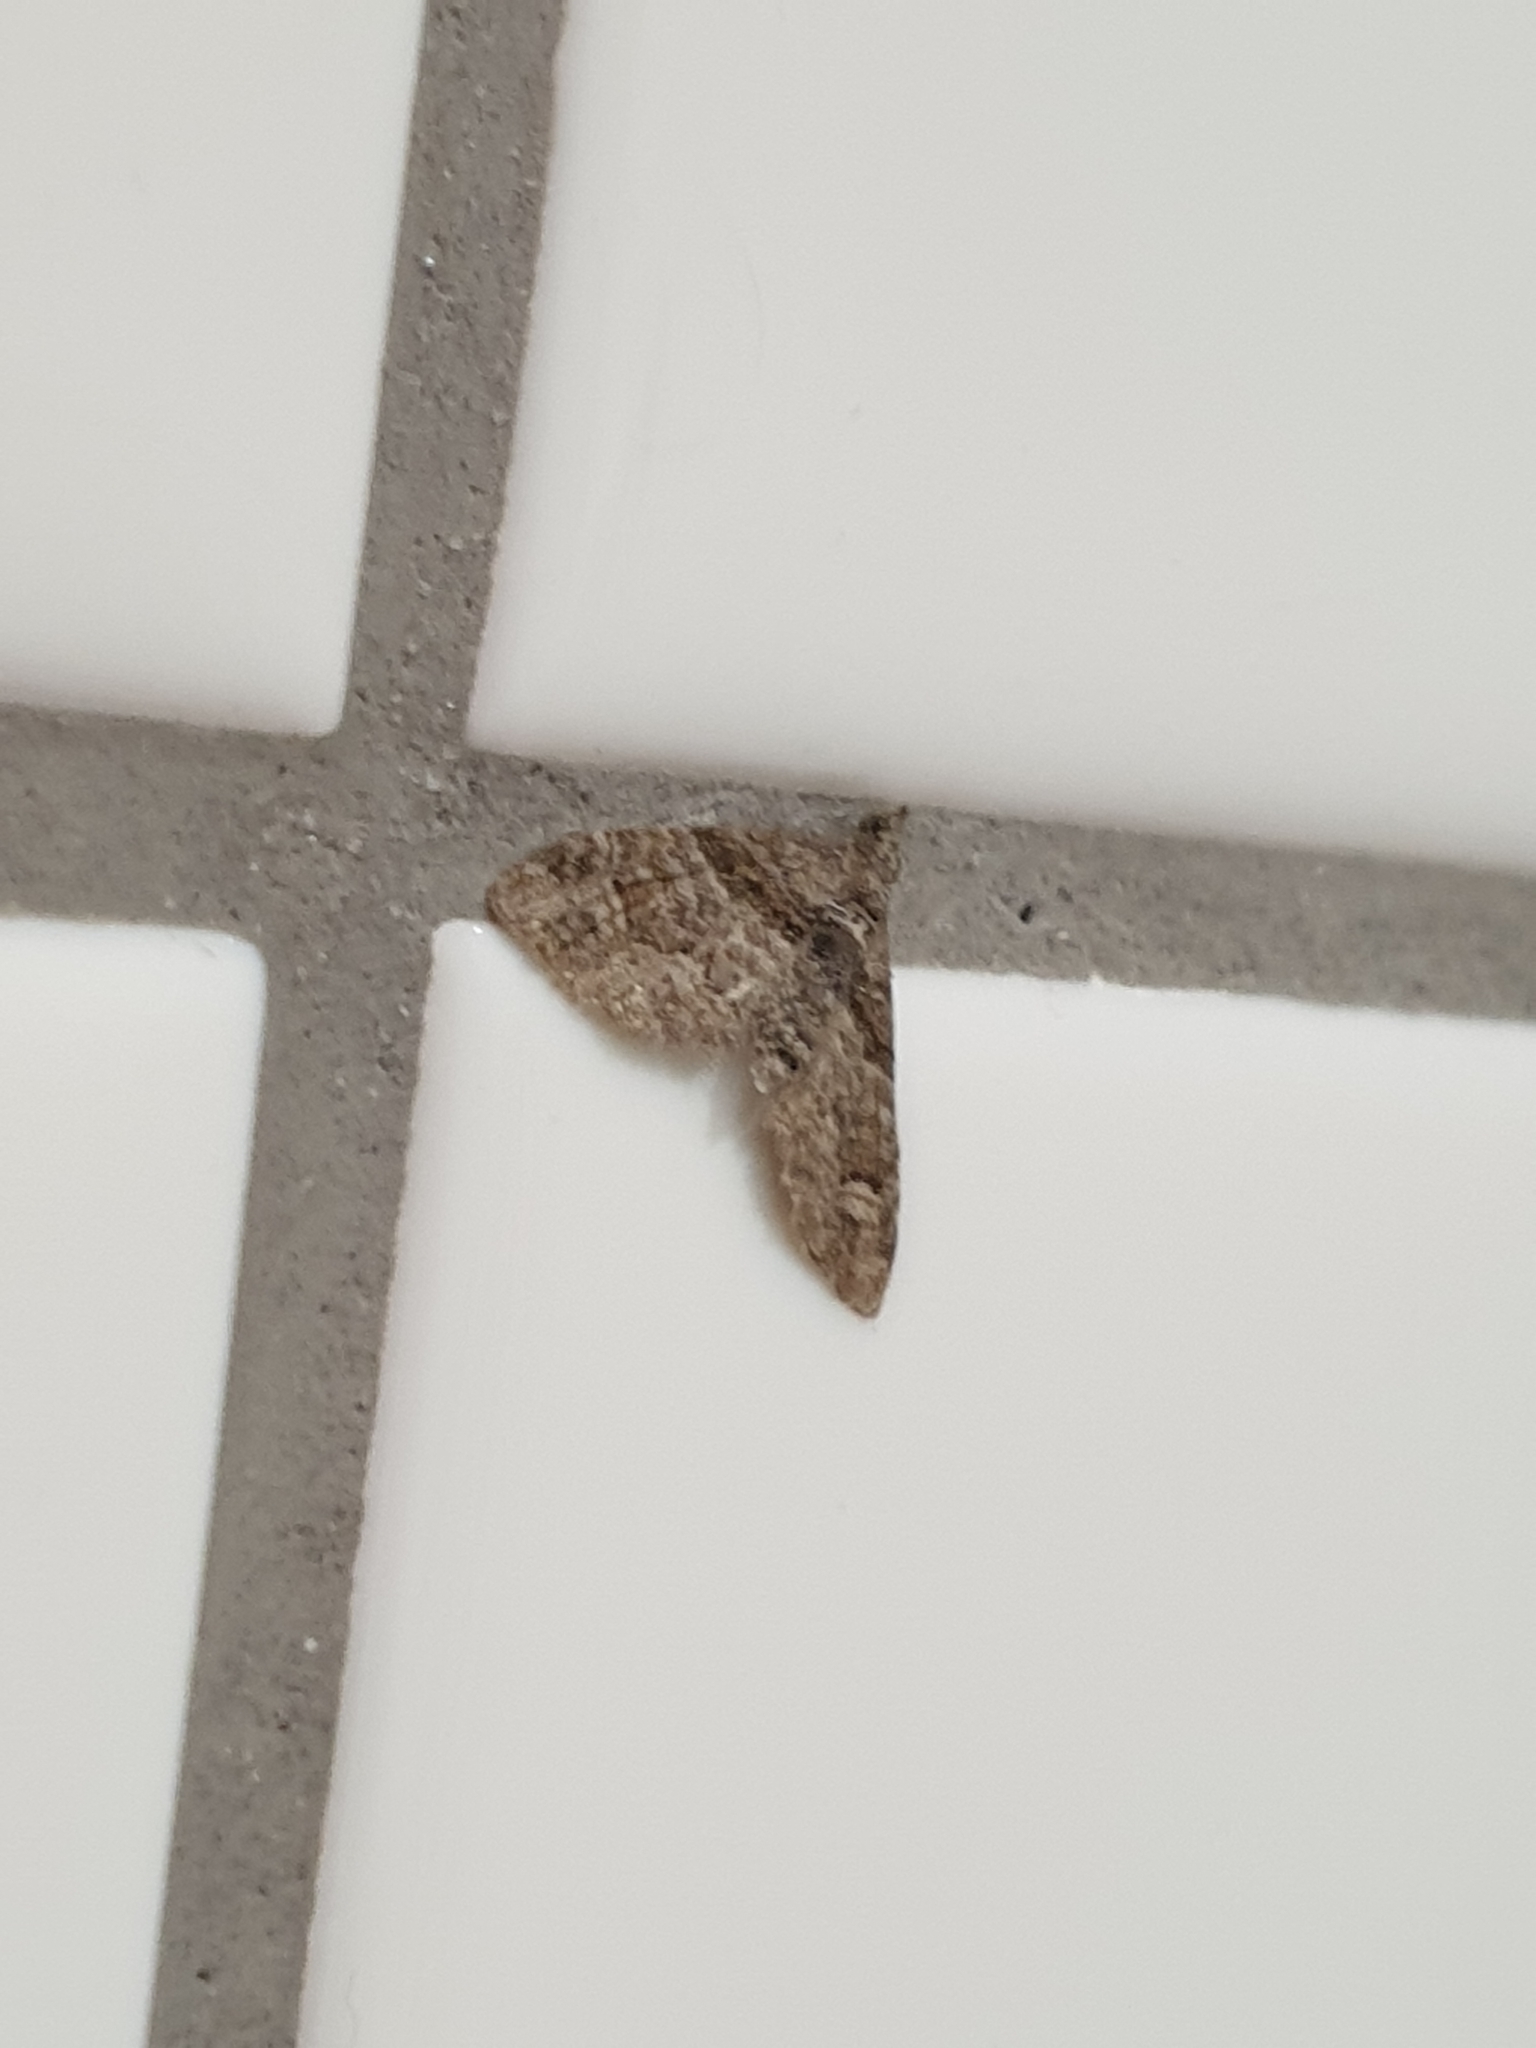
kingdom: Animalia
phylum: Arthropoda
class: Insecta
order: Lepidoptera
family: Geometridae
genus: Phrissogonus
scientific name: Phrissogonus laticostata
